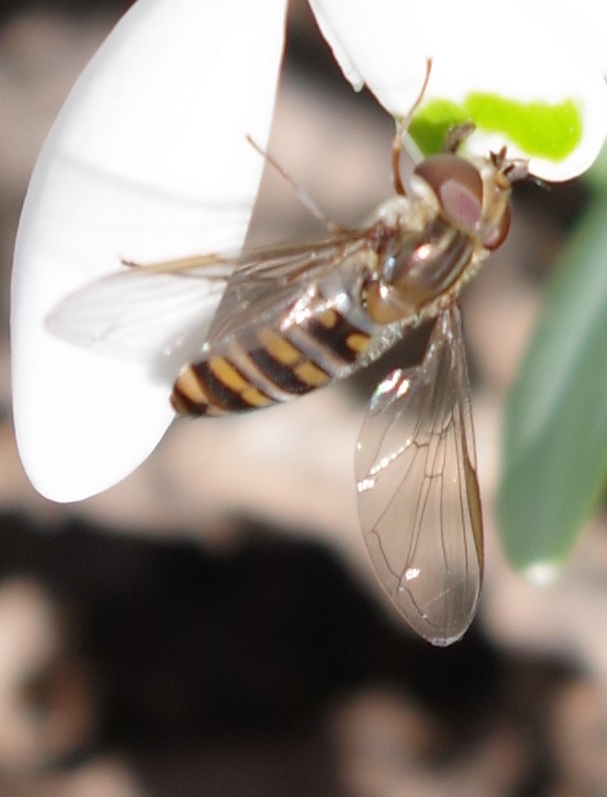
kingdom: Animalia
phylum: Arthropoda
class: Insecta
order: Diptera
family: Syrphidae
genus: Episyrphus
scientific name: Episyrphus balteatus
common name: Marmalade hoverfly
